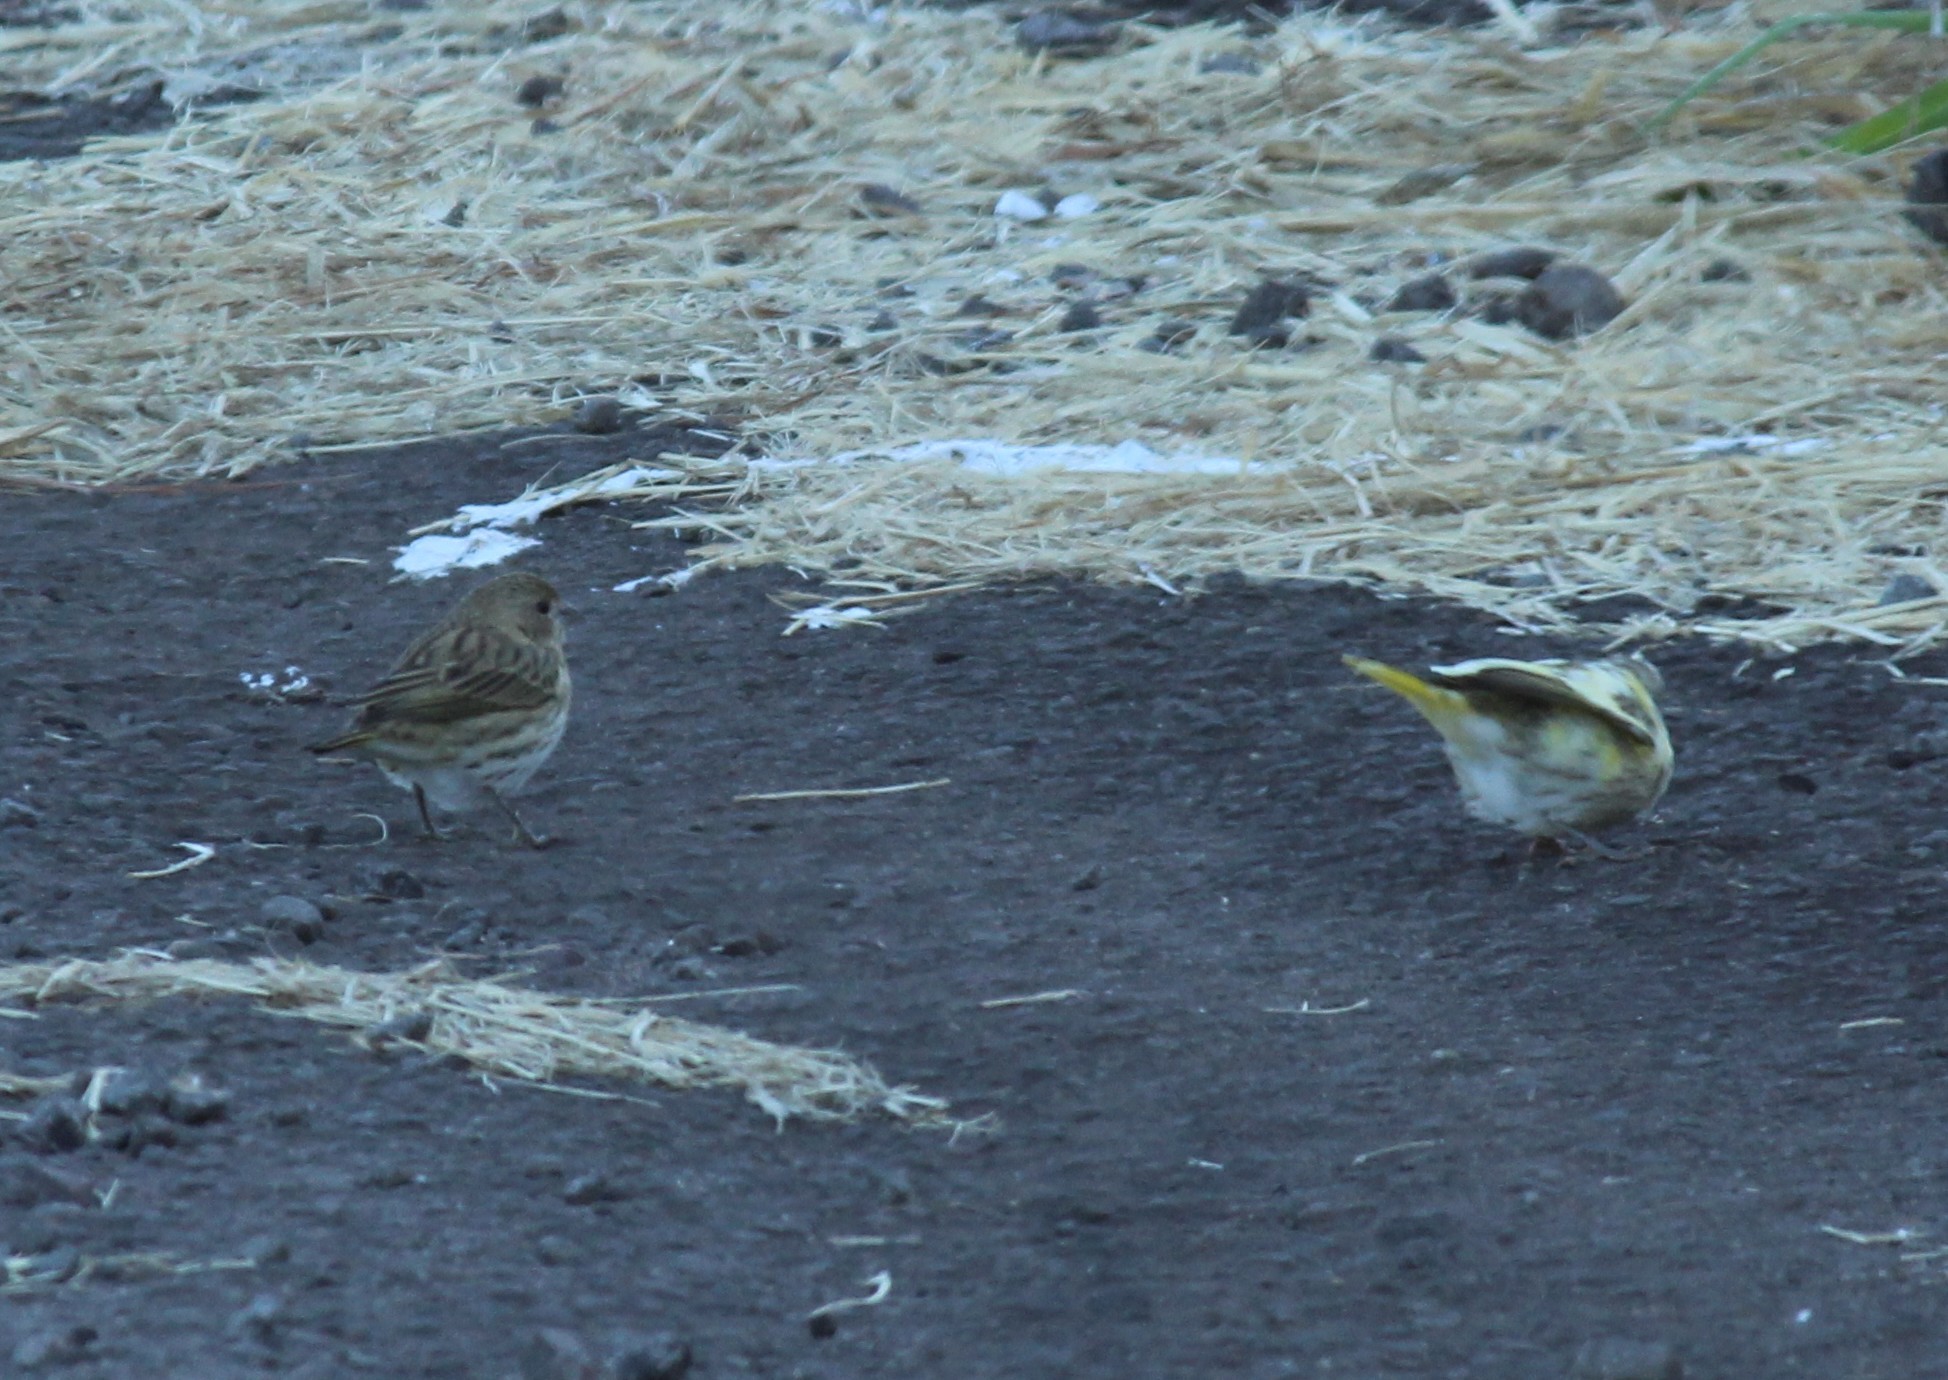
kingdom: Animalia
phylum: Chordata
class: Aves
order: Passeriformes
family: Thraupidae
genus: Sicalis
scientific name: Sicalis flaveola
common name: Saffron finch
